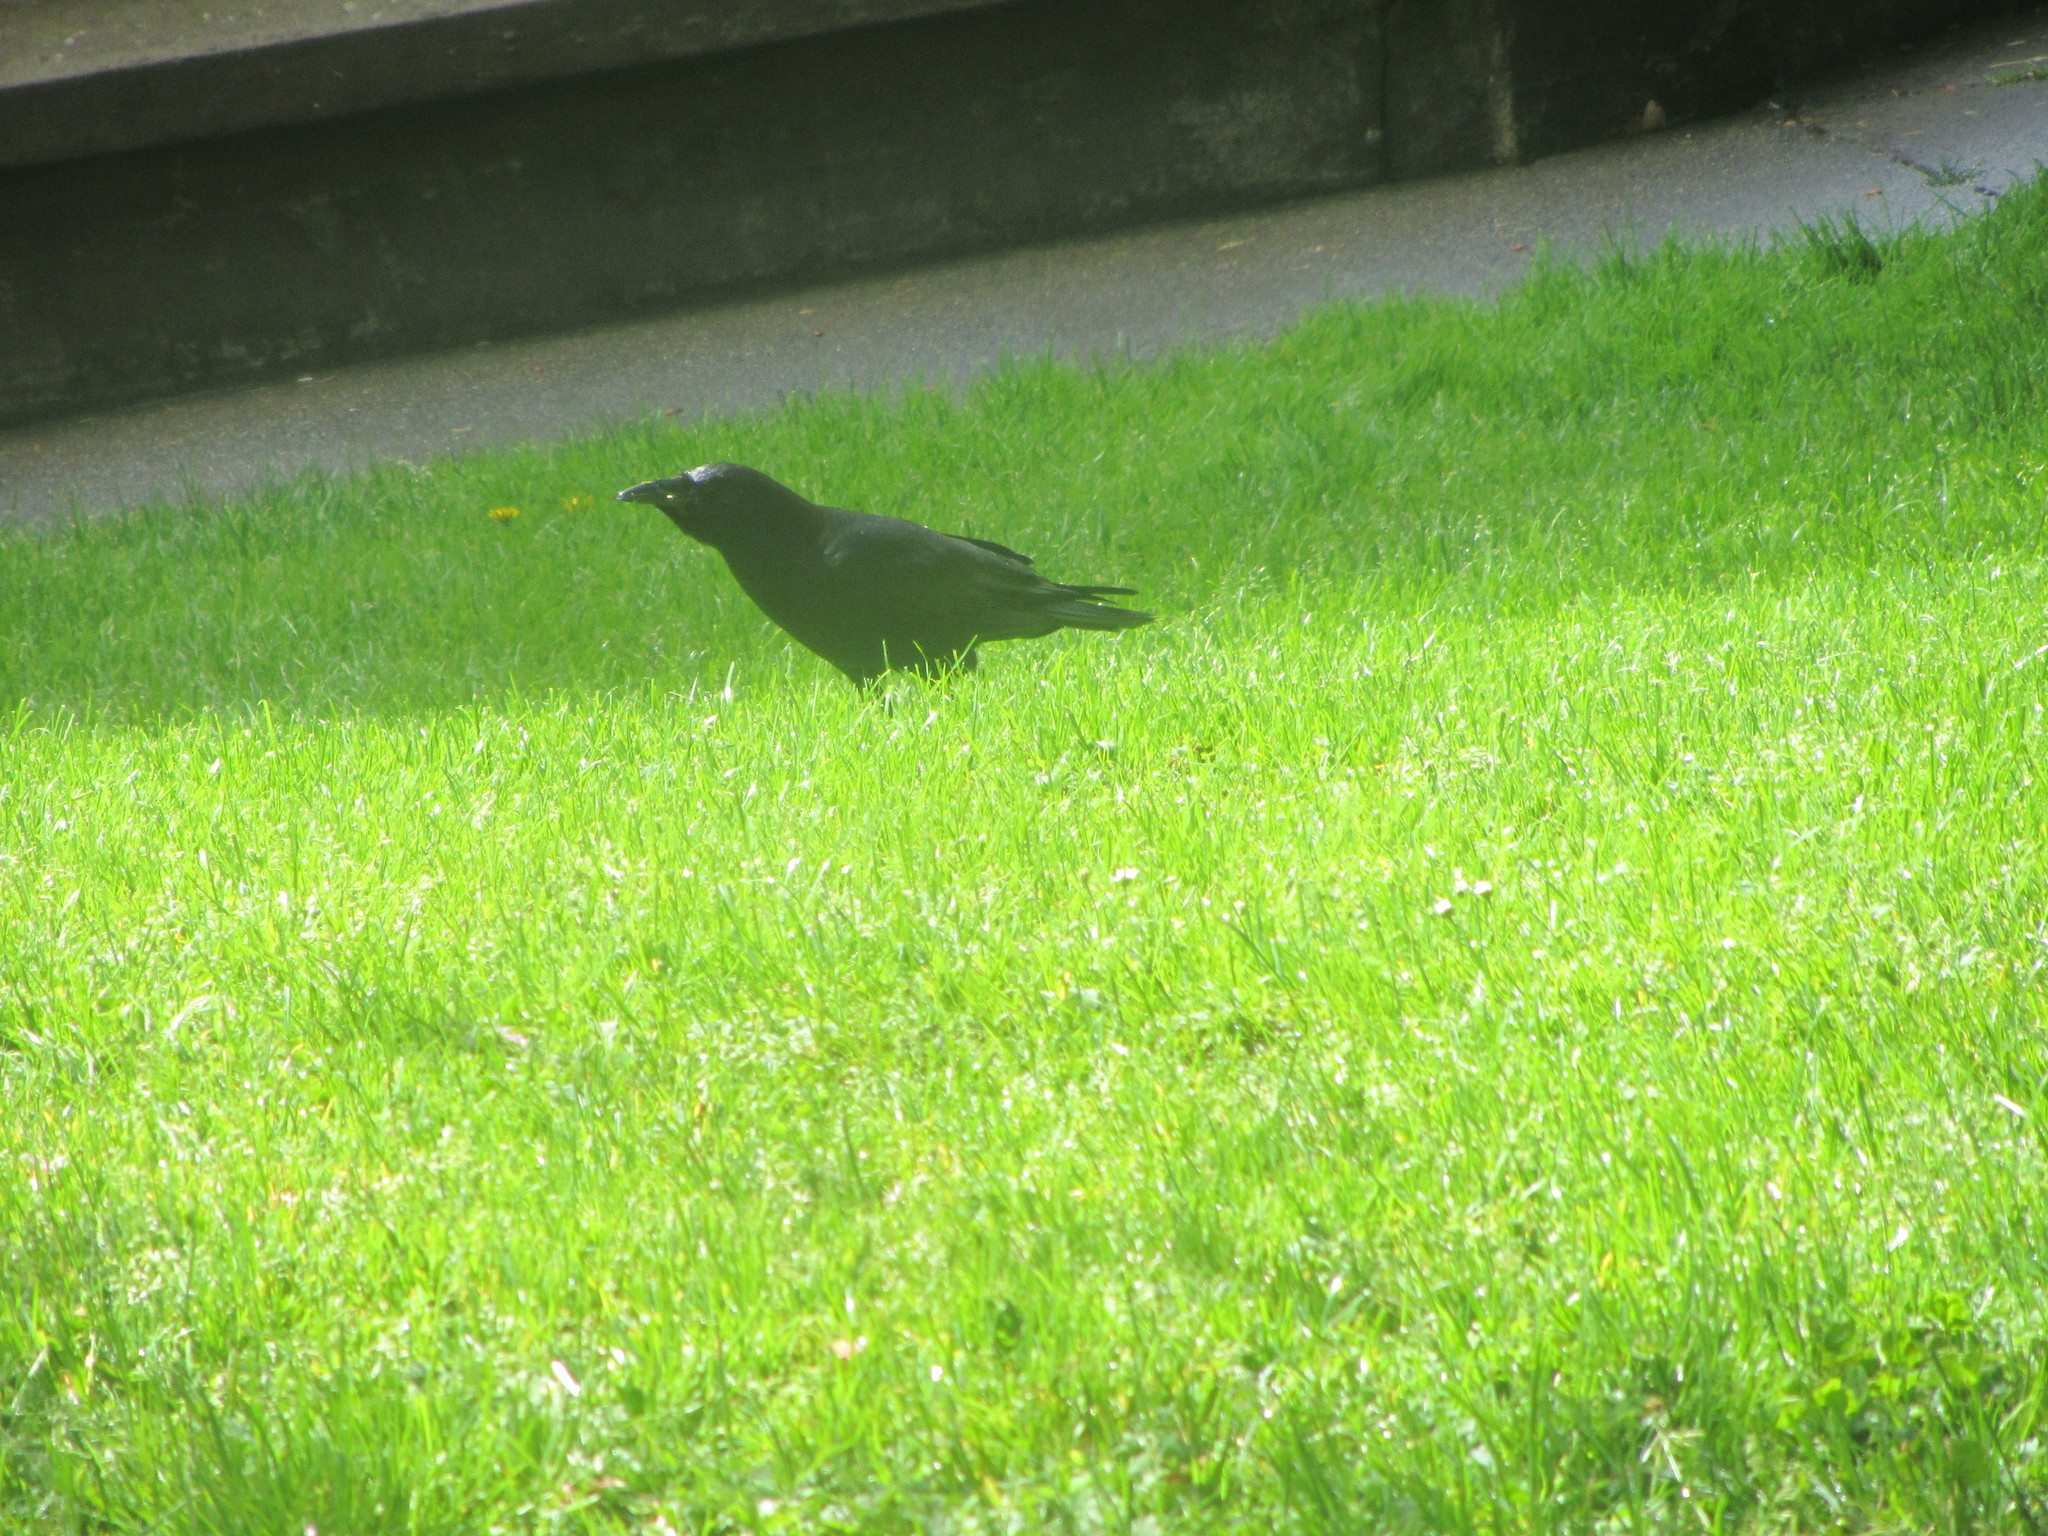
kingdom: Animalia
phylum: Chordata
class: Aves
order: Passeriformes
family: Corvidae
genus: Corvus
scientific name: Corvus brachyrhynchos
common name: American crow
